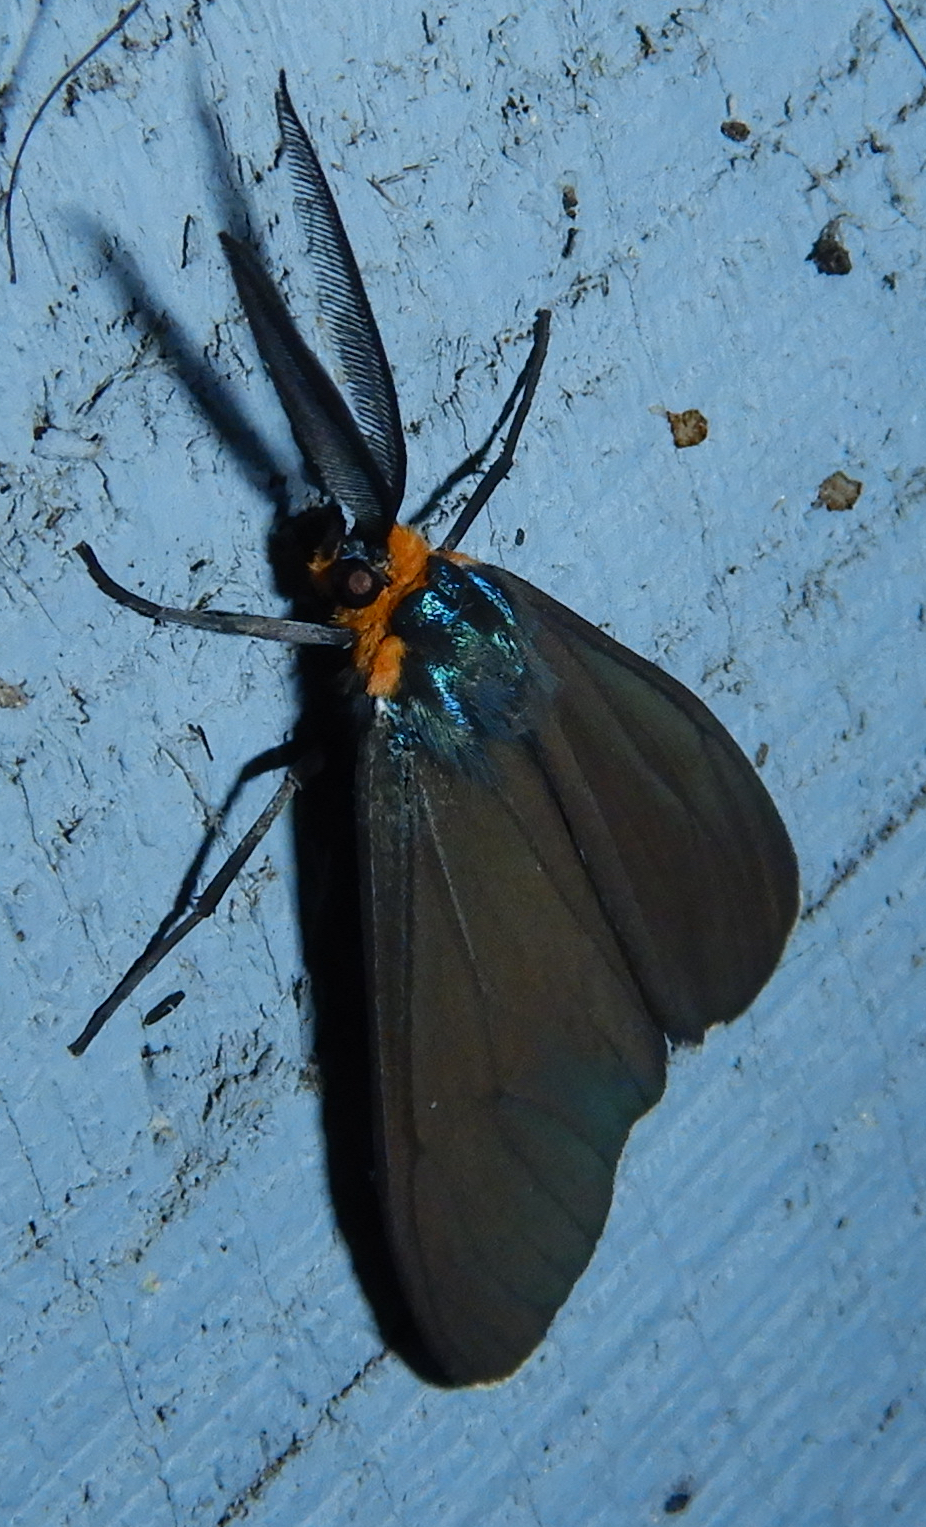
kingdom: Animalia
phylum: Arthropoda
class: Insecta
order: Lepidoptera
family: Erebidae
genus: Ctenucha
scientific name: Ctenucha virginica
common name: Virginia ctenucha moth
